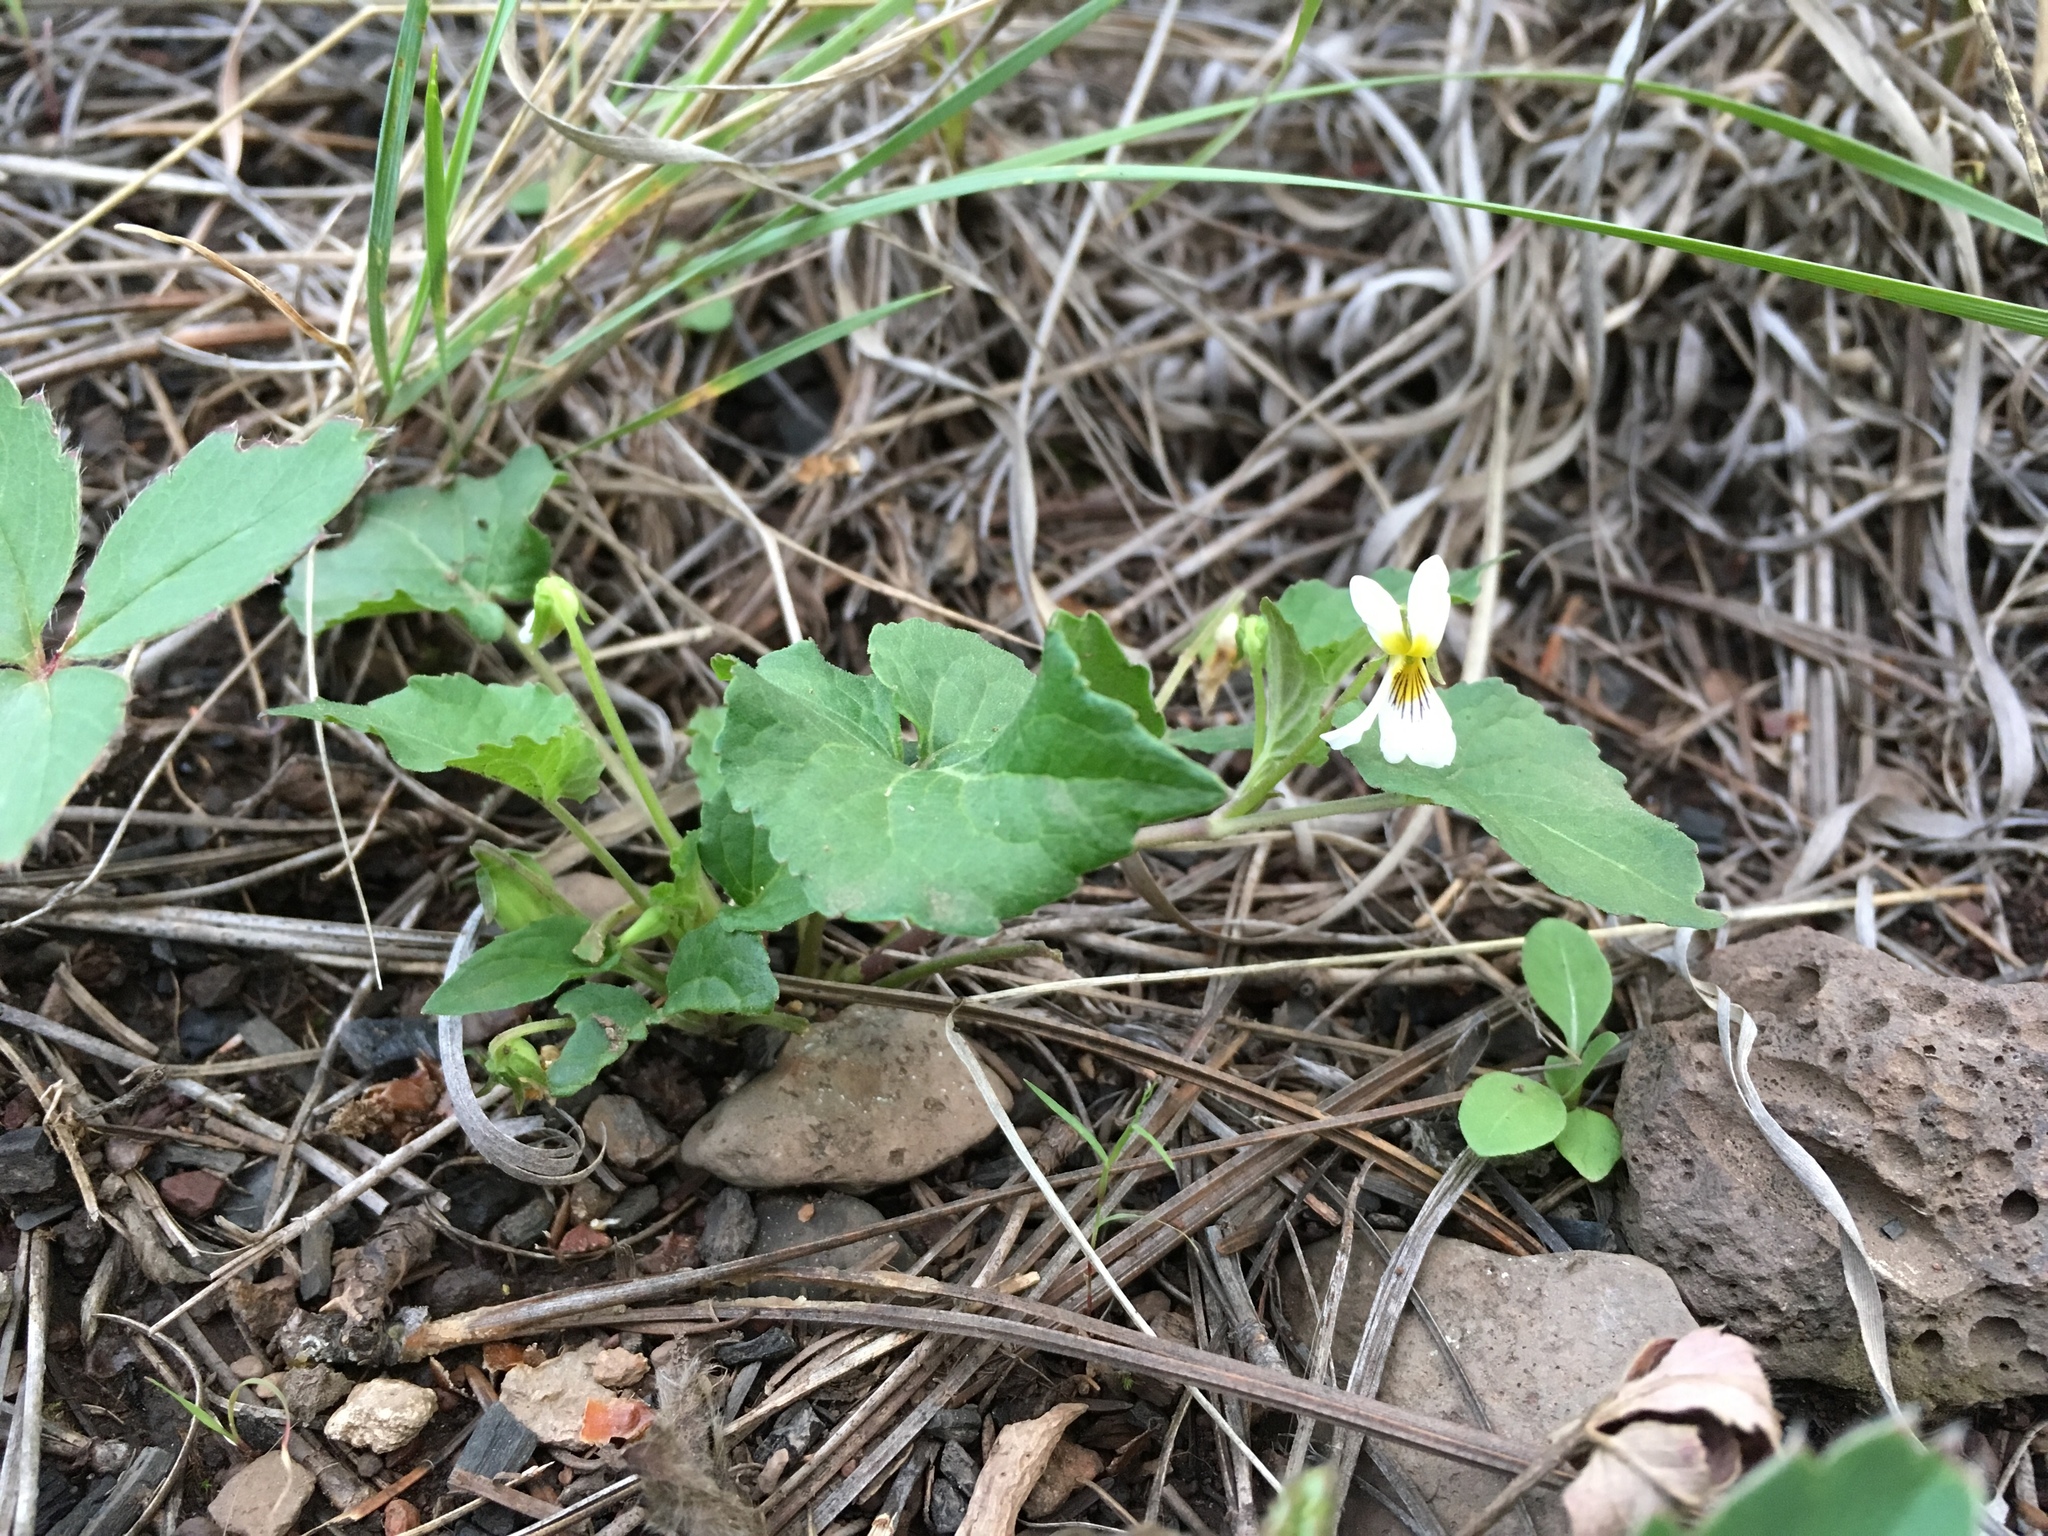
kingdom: Plantae
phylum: Tracheophyta
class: Magnoliopsida
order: Malpighiales
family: Violaceae
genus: Viola
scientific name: Viola canadensis
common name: Canada violet
